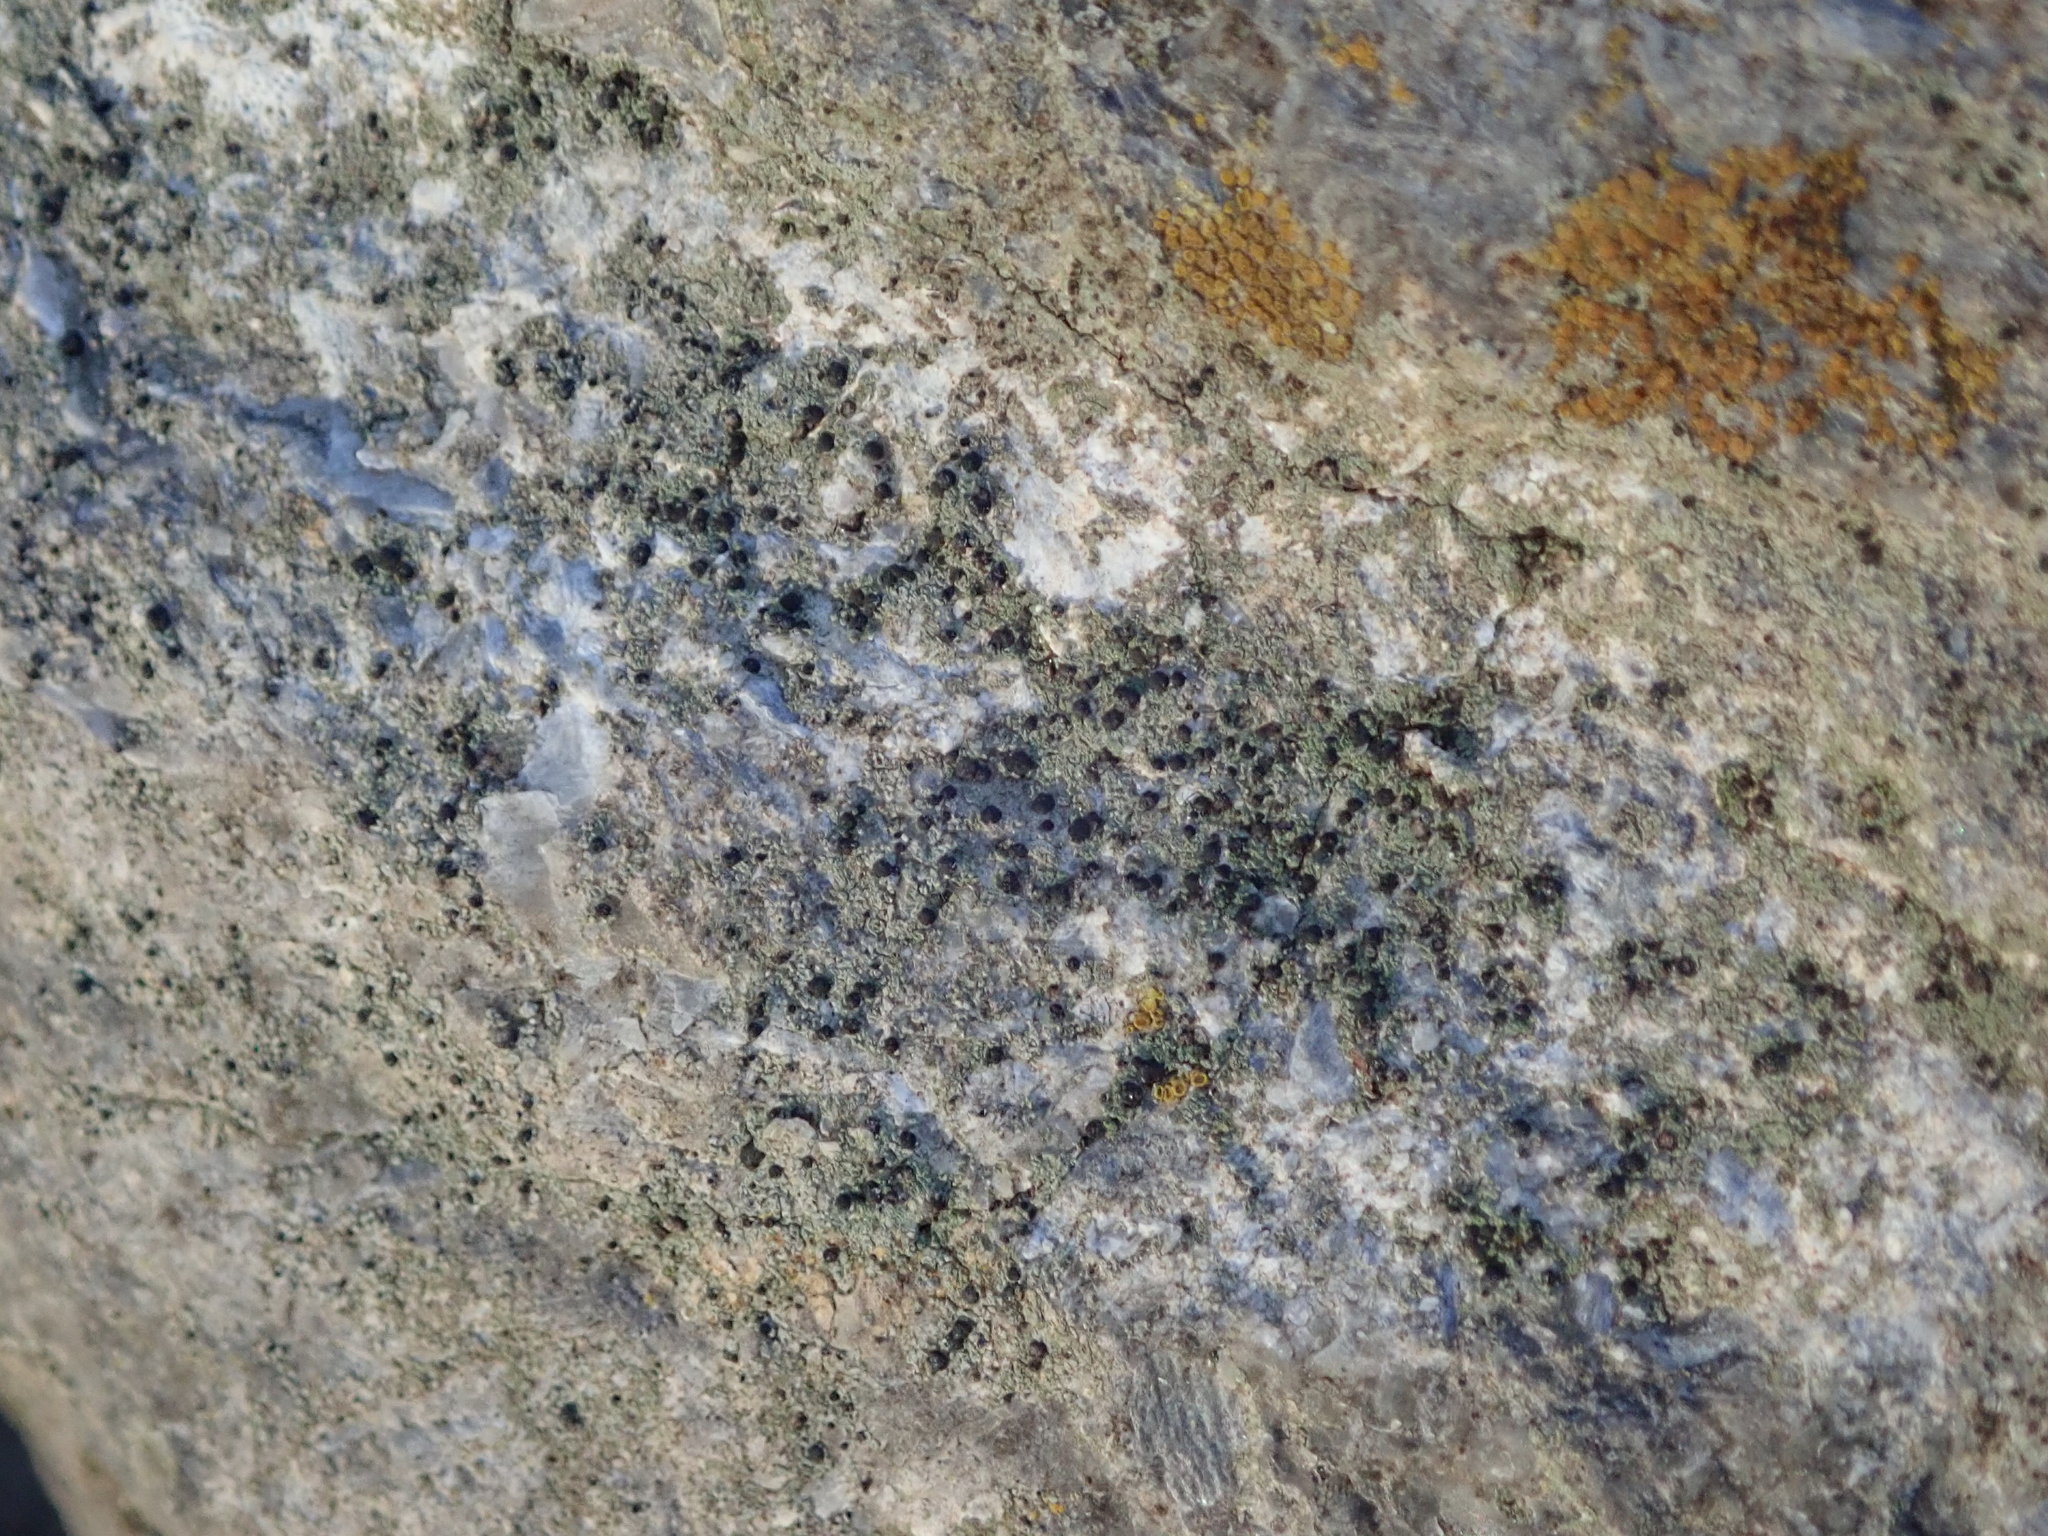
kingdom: Fungi
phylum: Ascomycota
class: Lecanoromycetes
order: Lecanorales
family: Ramalinaceae
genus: Bacidia
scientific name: Bacidia
